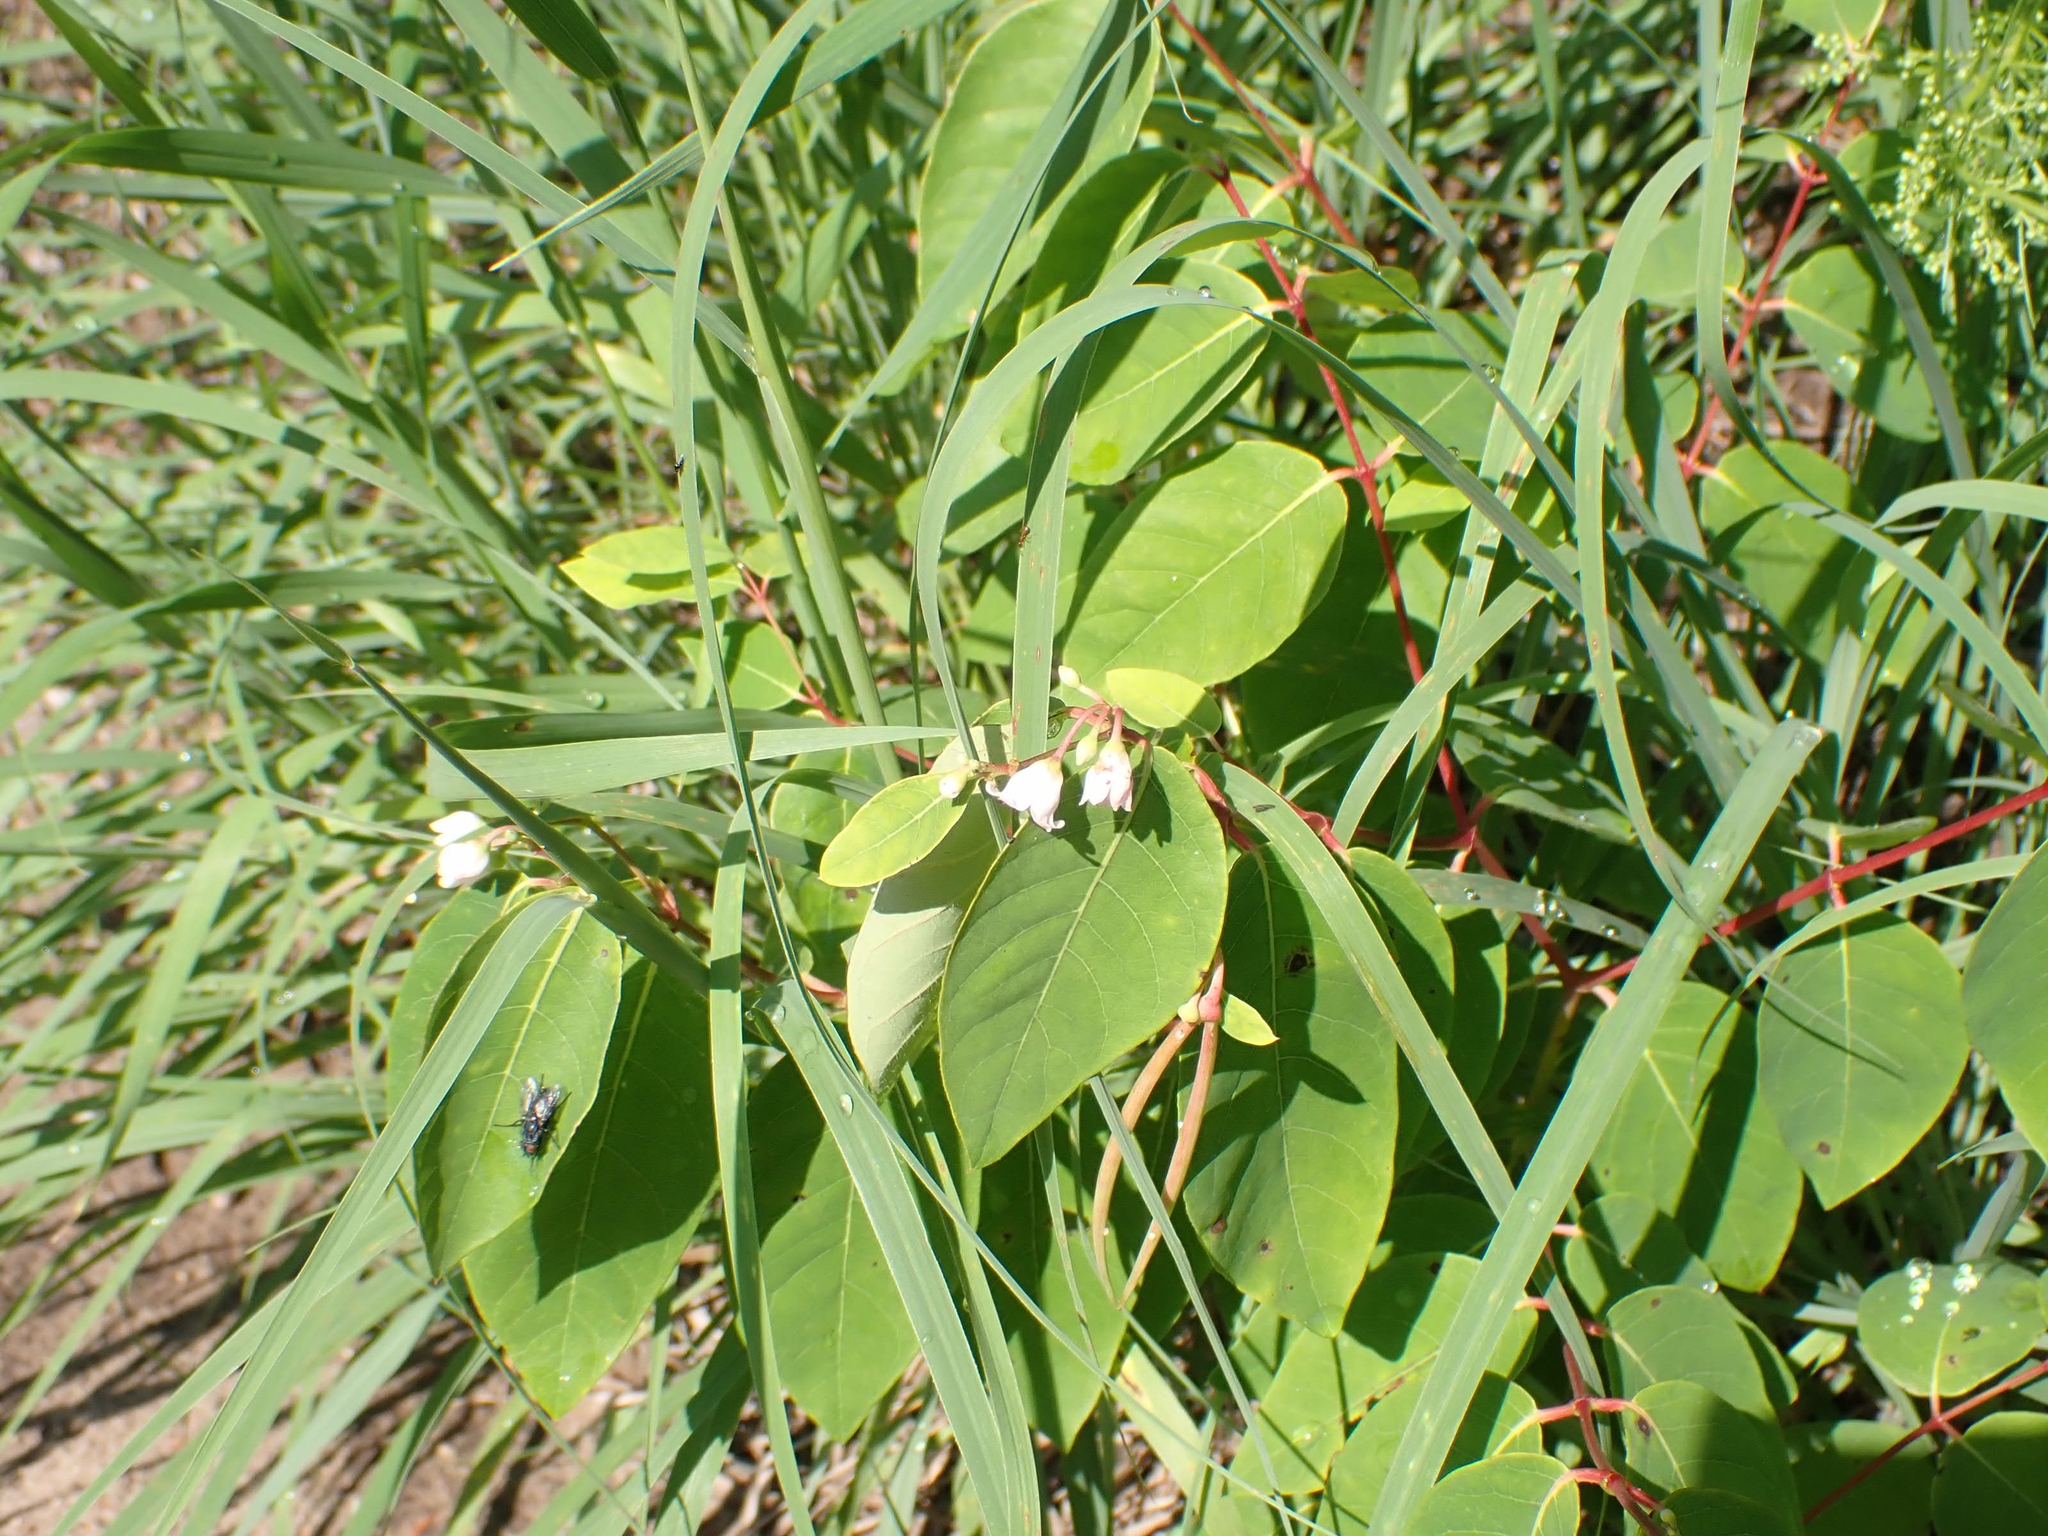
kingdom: Plantae
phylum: Tracheophyta
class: Magnoliopsida
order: Gentianales
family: Apocynaceae
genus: Apocynum
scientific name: Apocynum androsaemifolium
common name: Spreading dogbane
